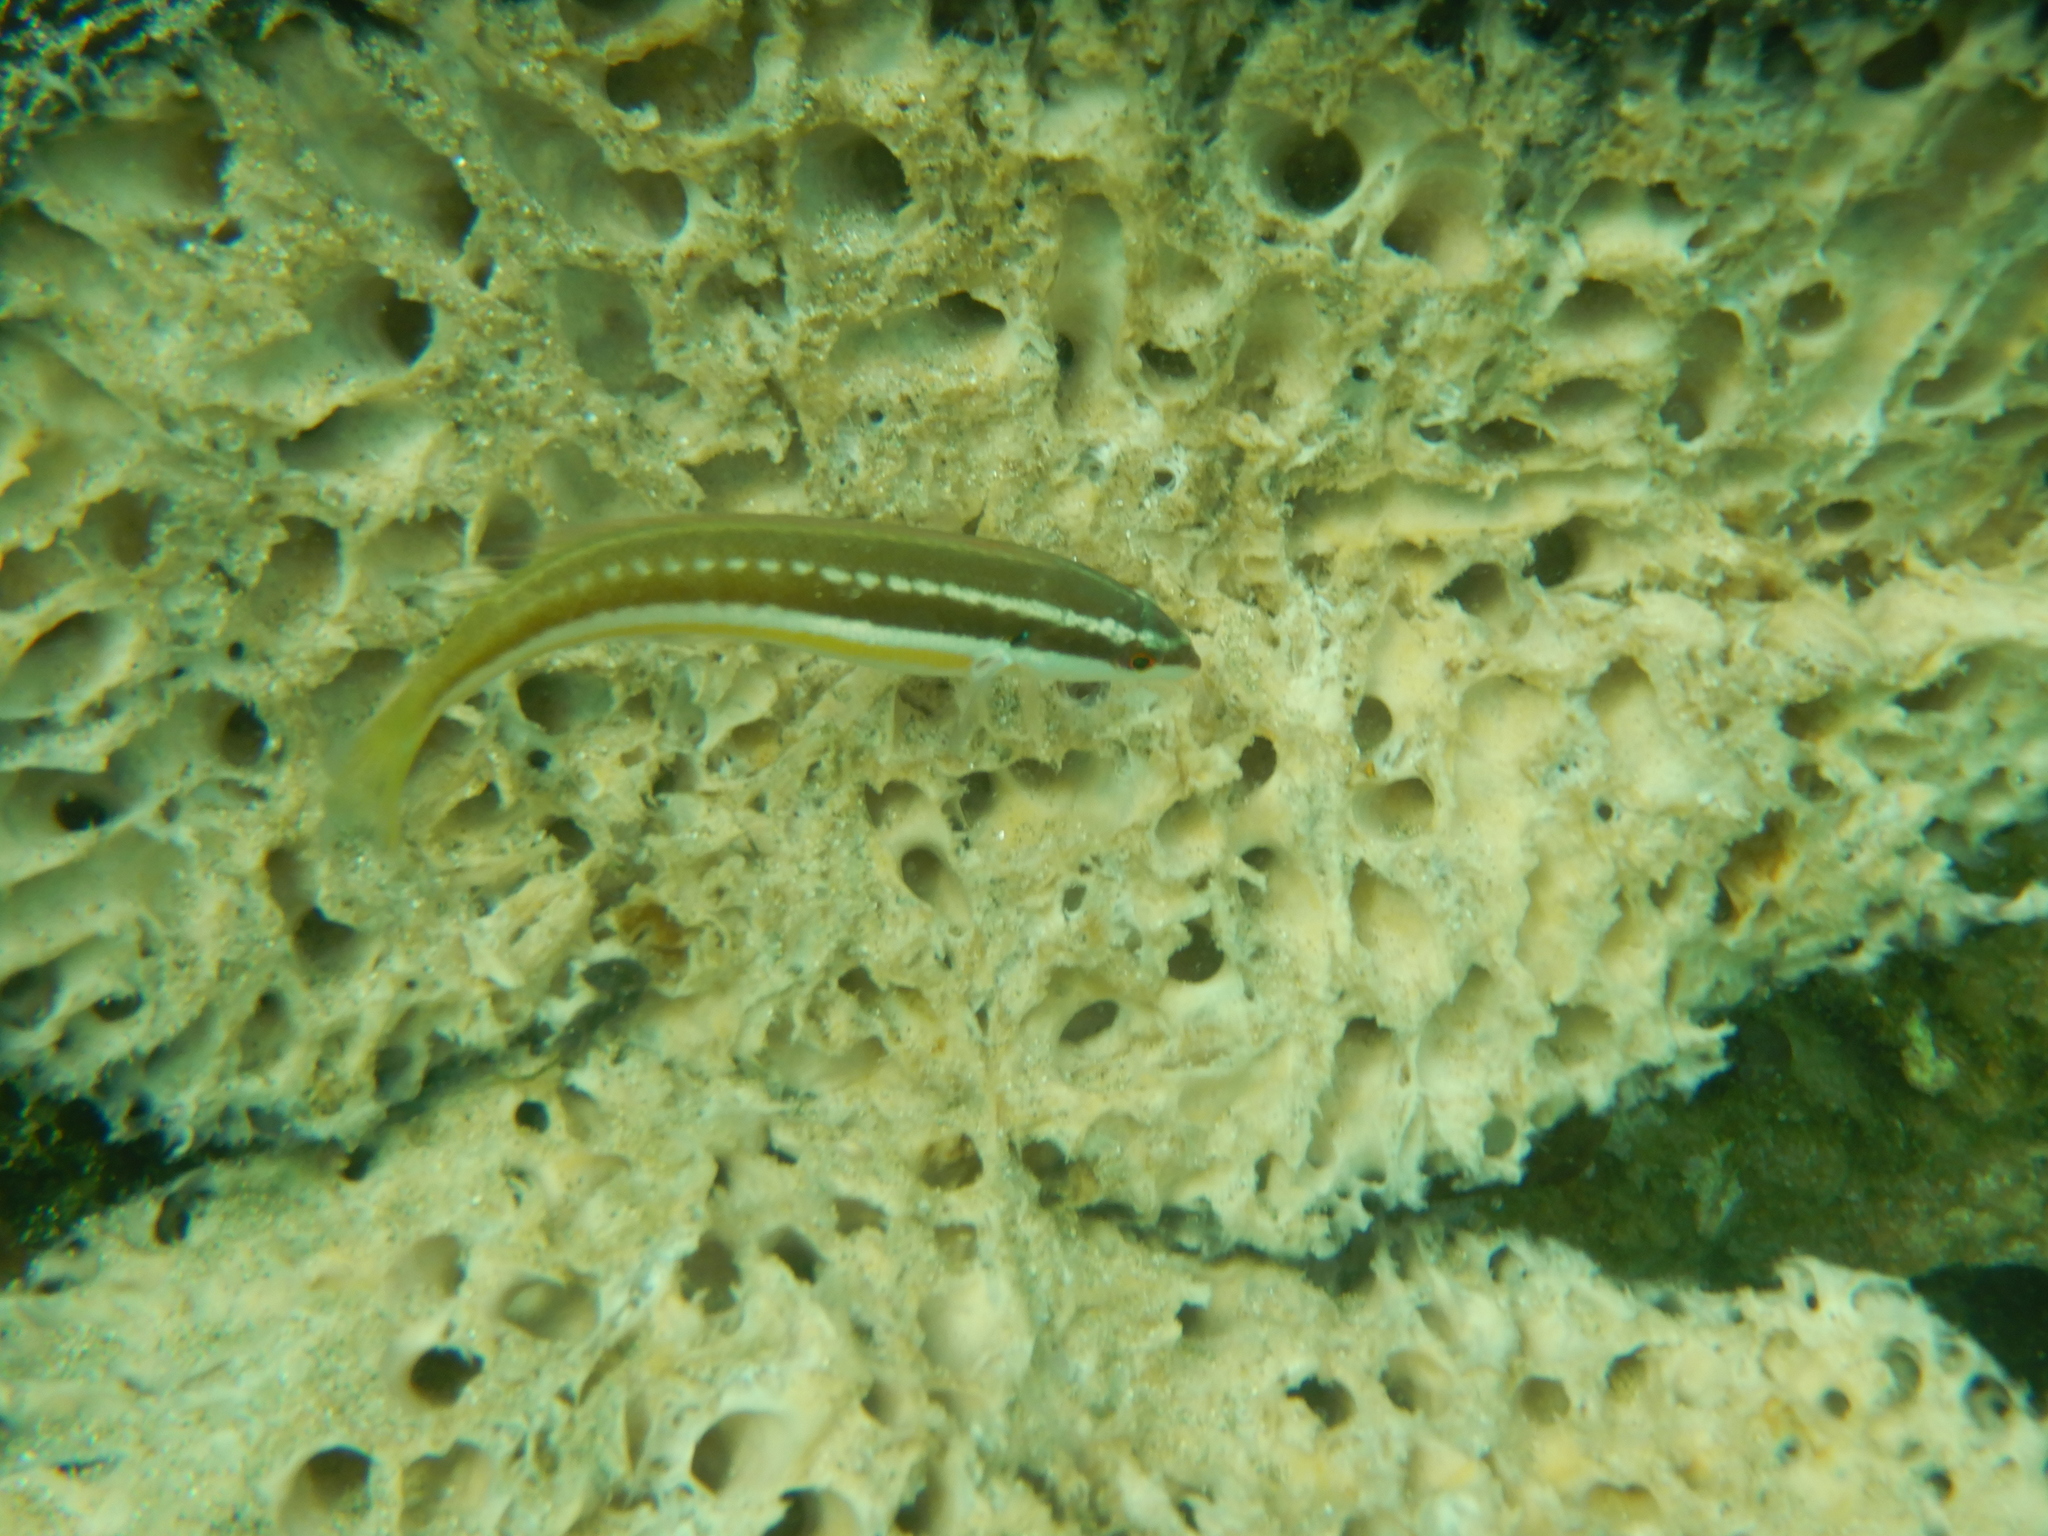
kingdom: Animalia
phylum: Chordata
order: Perciformes
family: Labridae
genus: Coris
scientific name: Coris julis
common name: Rainbow wrasse
